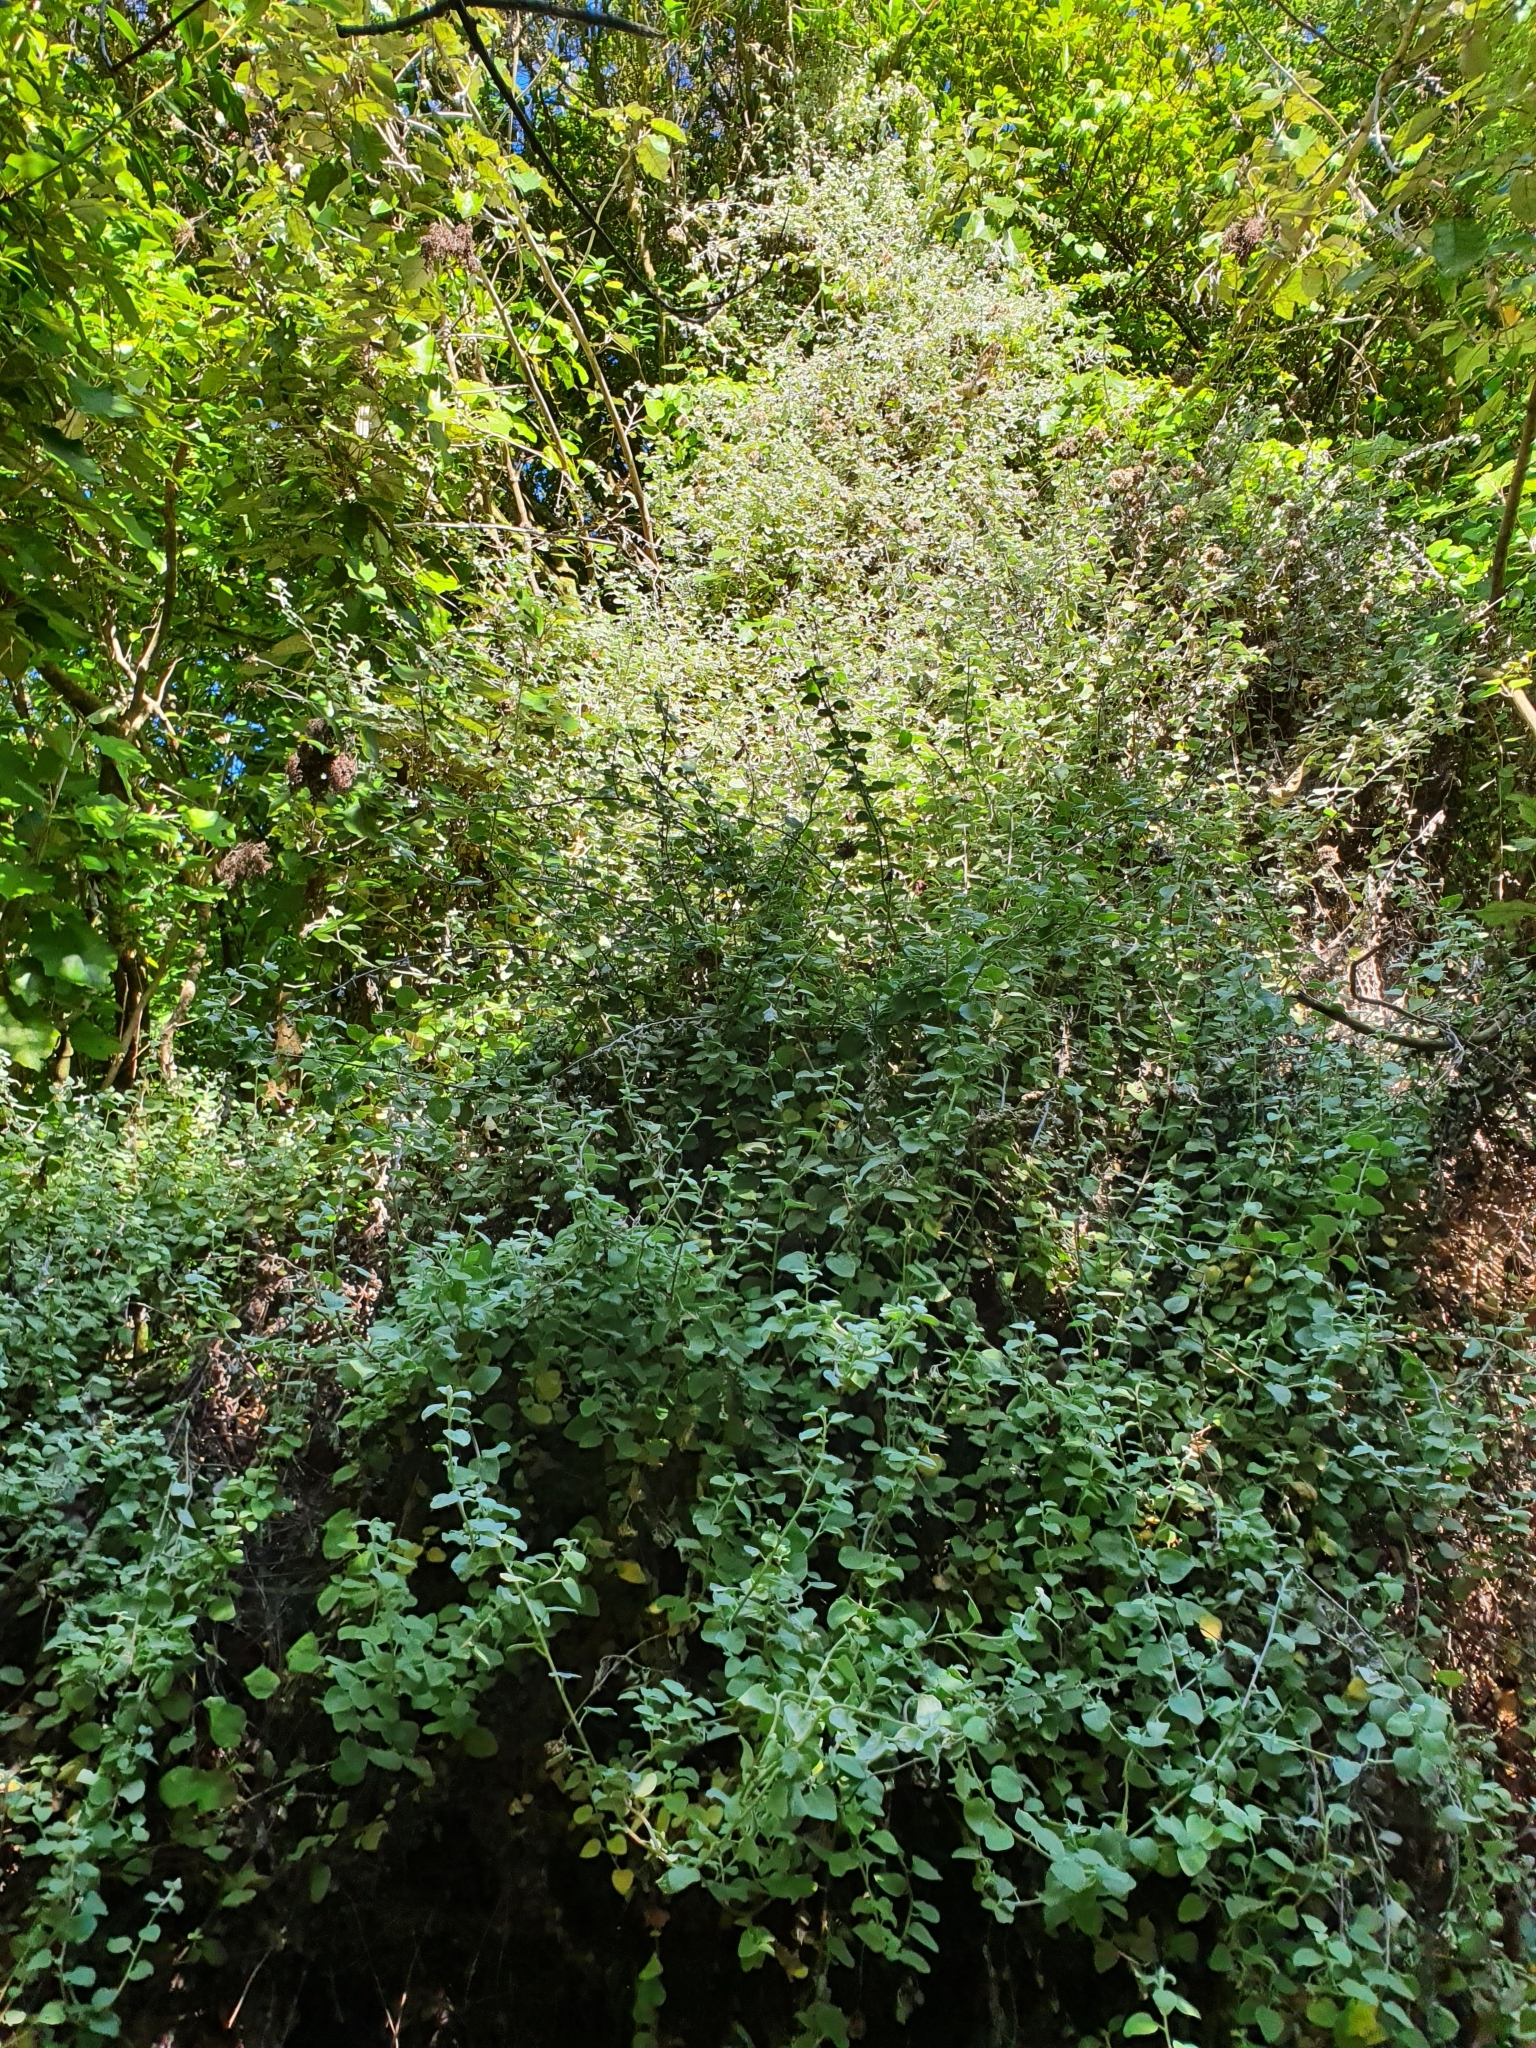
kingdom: Plantae
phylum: Tracheophyta
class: Magnoliopsida
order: Asterales
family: Asteraceae
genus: Helichrysum
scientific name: Helichrysum petiolare
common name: Licorice-plant
